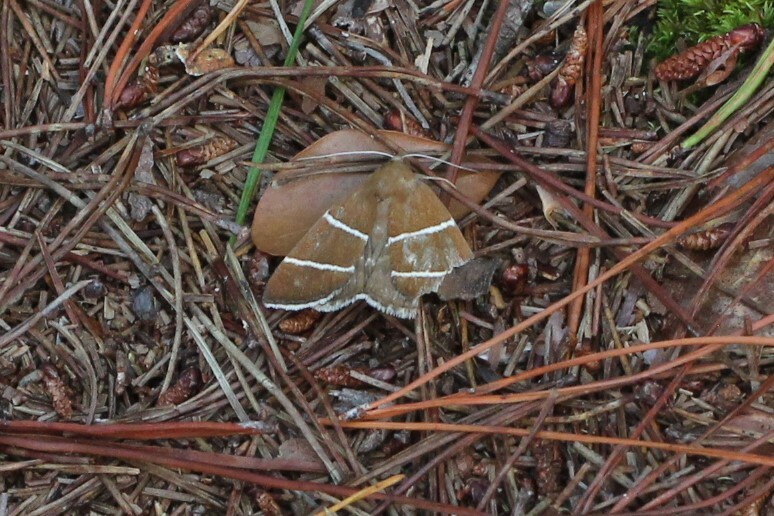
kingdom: Animalia
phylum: Arthropoda
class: Insecta
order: Lepidoptera
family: Erebidae
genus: Argyrostrotis
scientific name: Argyrostrotis quadrifilaris
